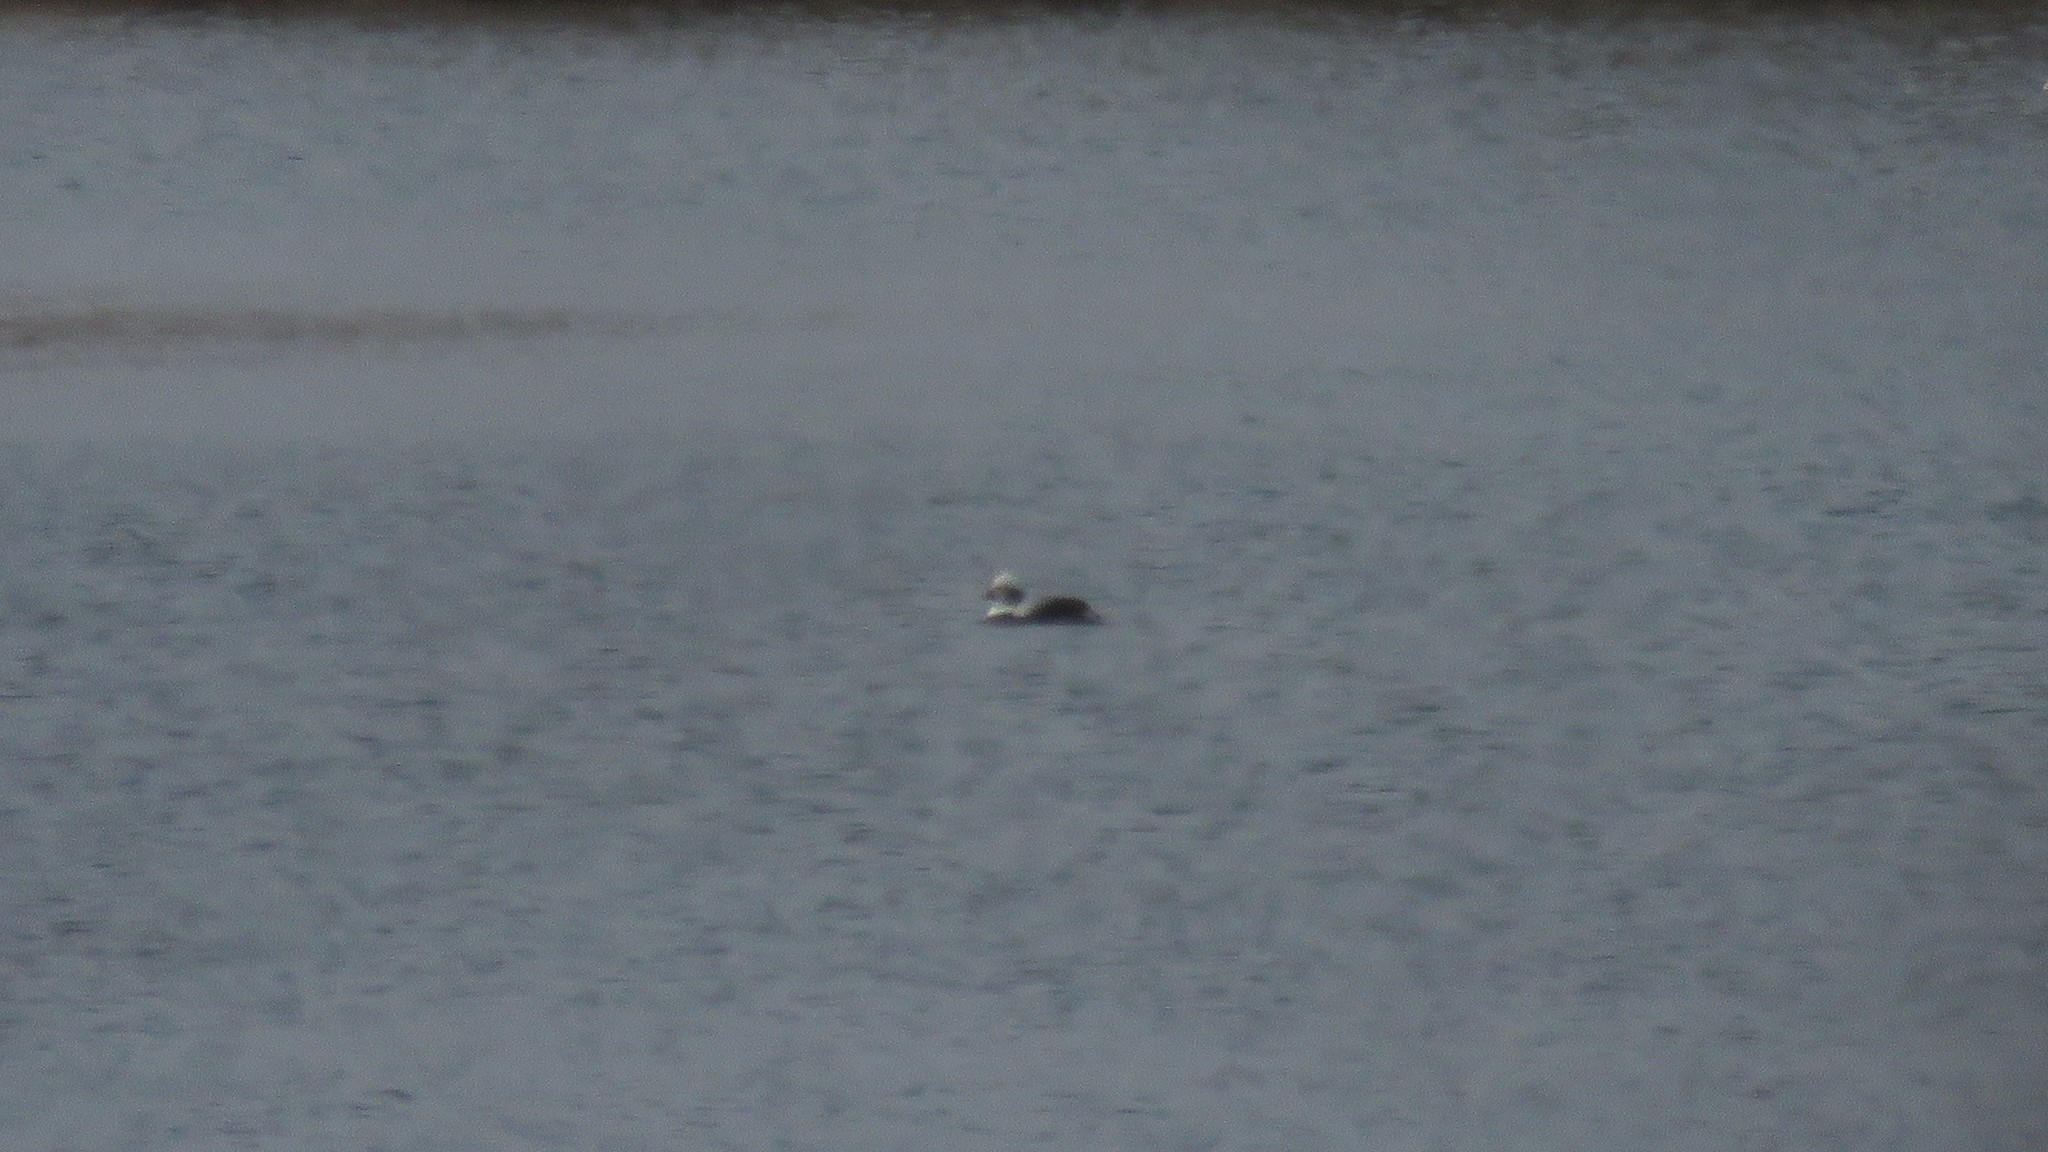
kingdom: Animalia
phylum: Chordata
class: Aves
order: Anseriformes
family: Anatidae
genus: Clangula
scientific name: Clangula hyemalis
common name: Long-tailed duck
